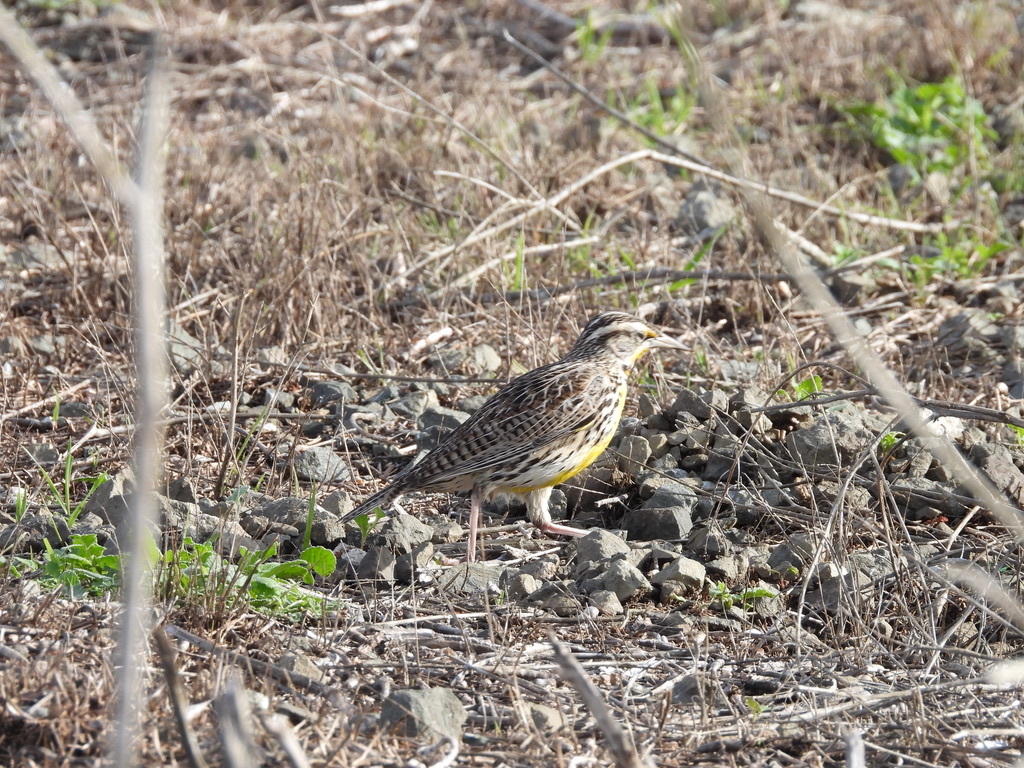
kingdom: Animalia
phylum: Chordata
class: Aves
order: Passeriformes
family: Icteridae
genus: Sturnella
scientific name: Sturnella neglecta
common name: Western meadowlark
